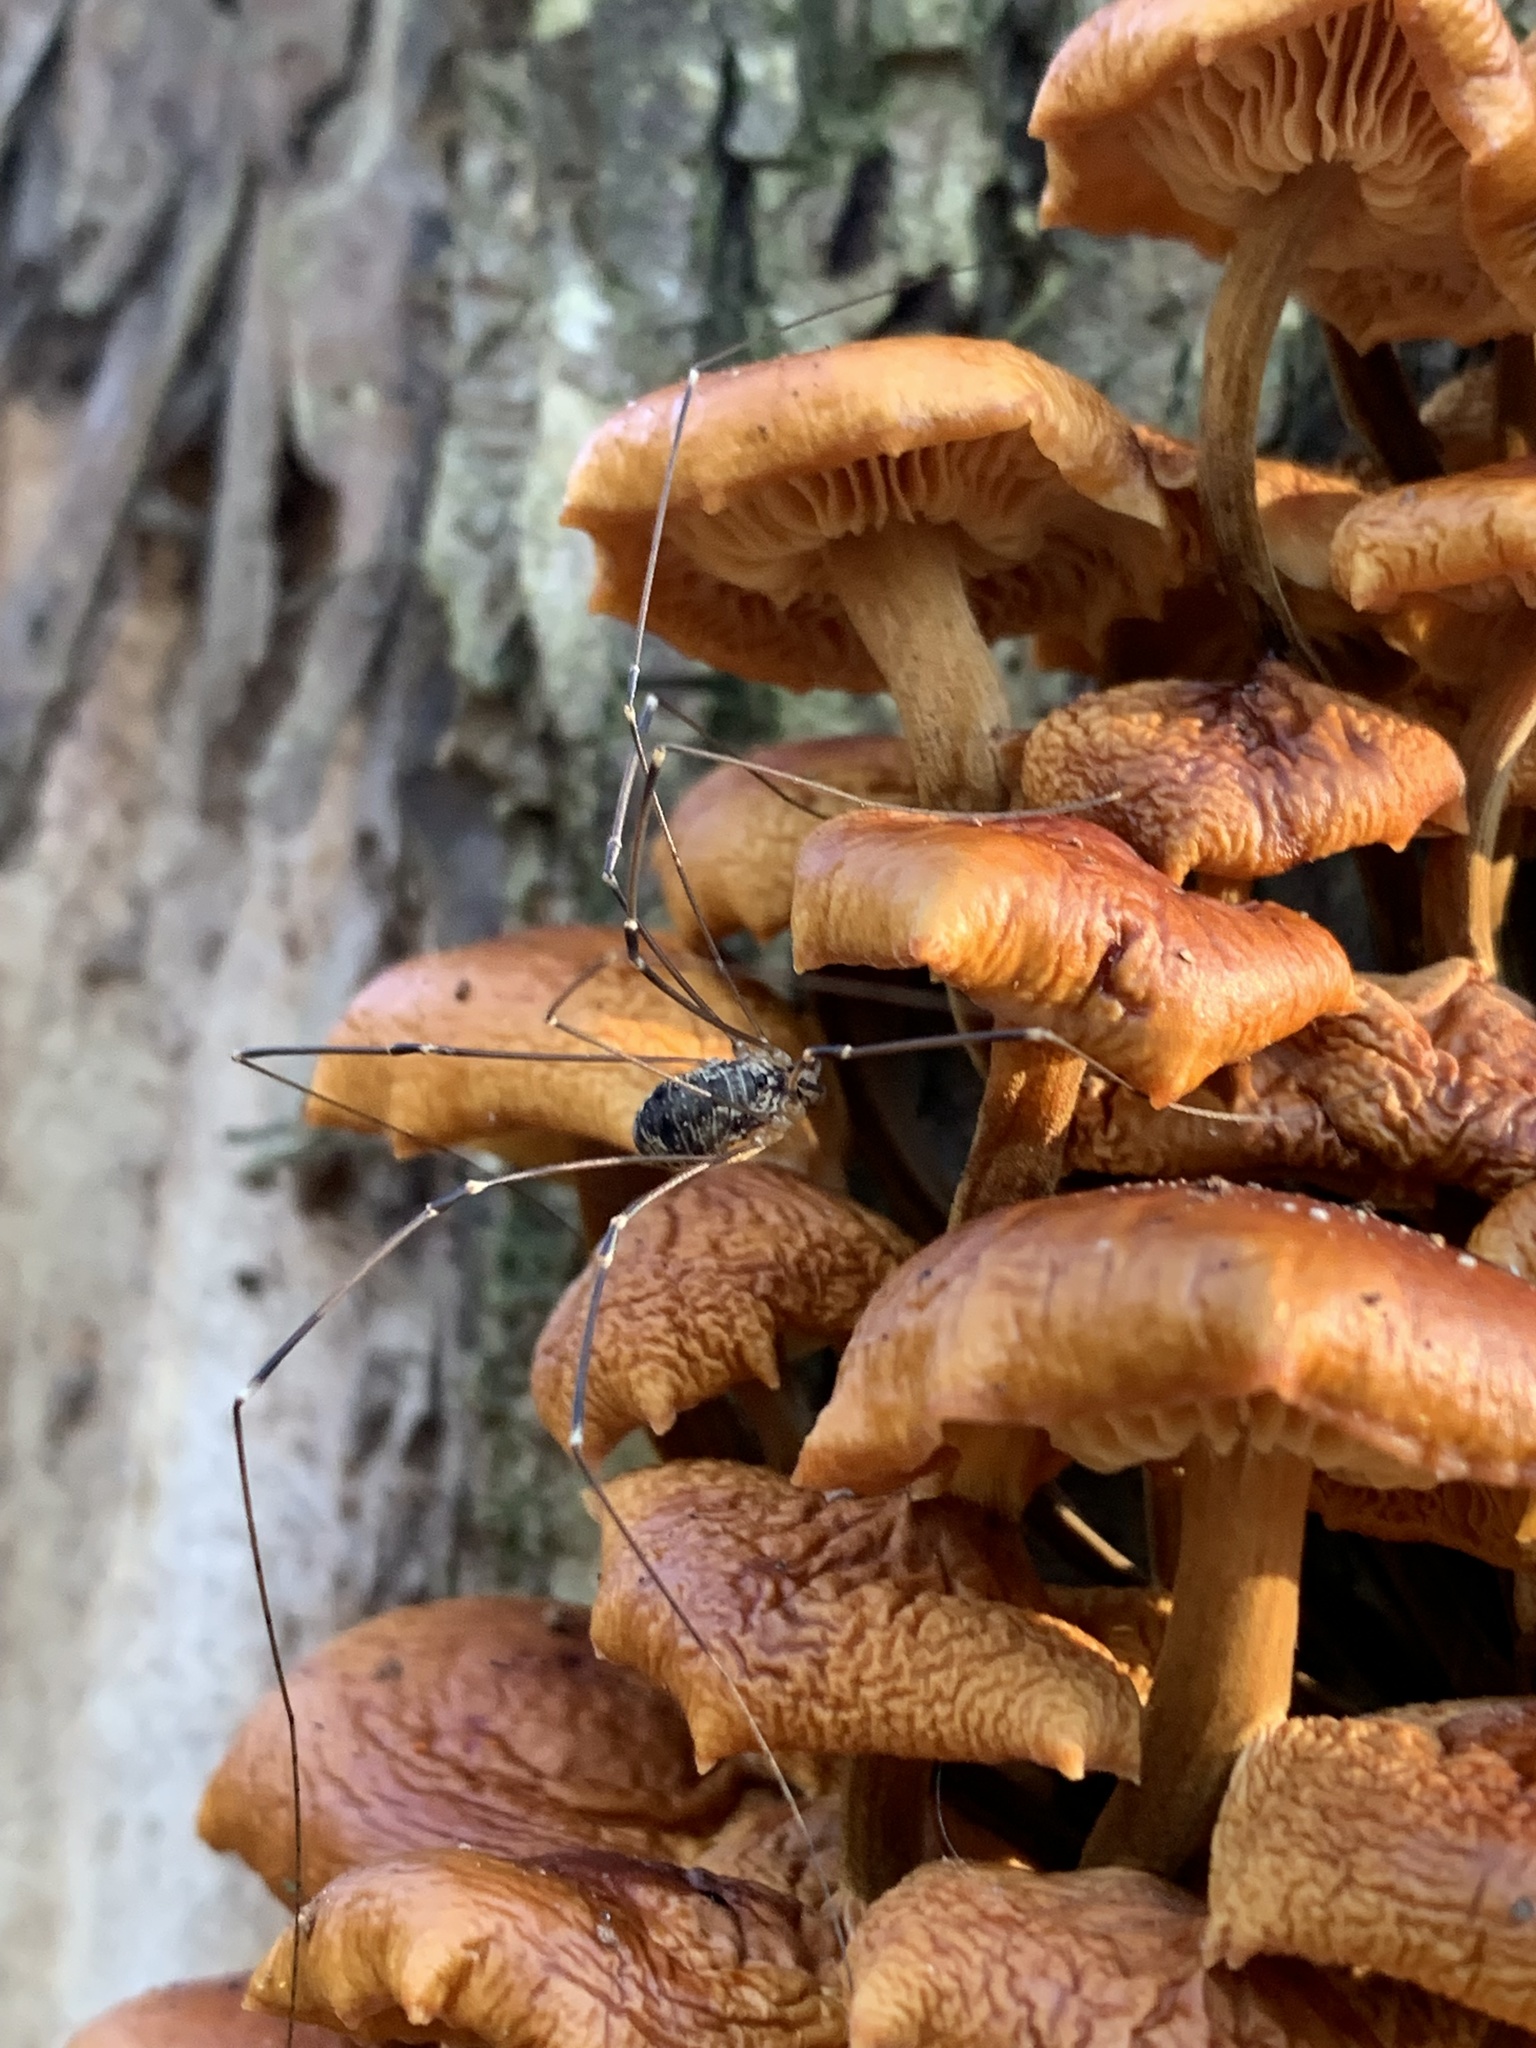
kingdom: Animalia
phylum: Arthropoda
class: Arachnida
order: Opiliones
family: Sclerosomatidae
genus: Leiobunum
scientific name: Leiobunum gracile
